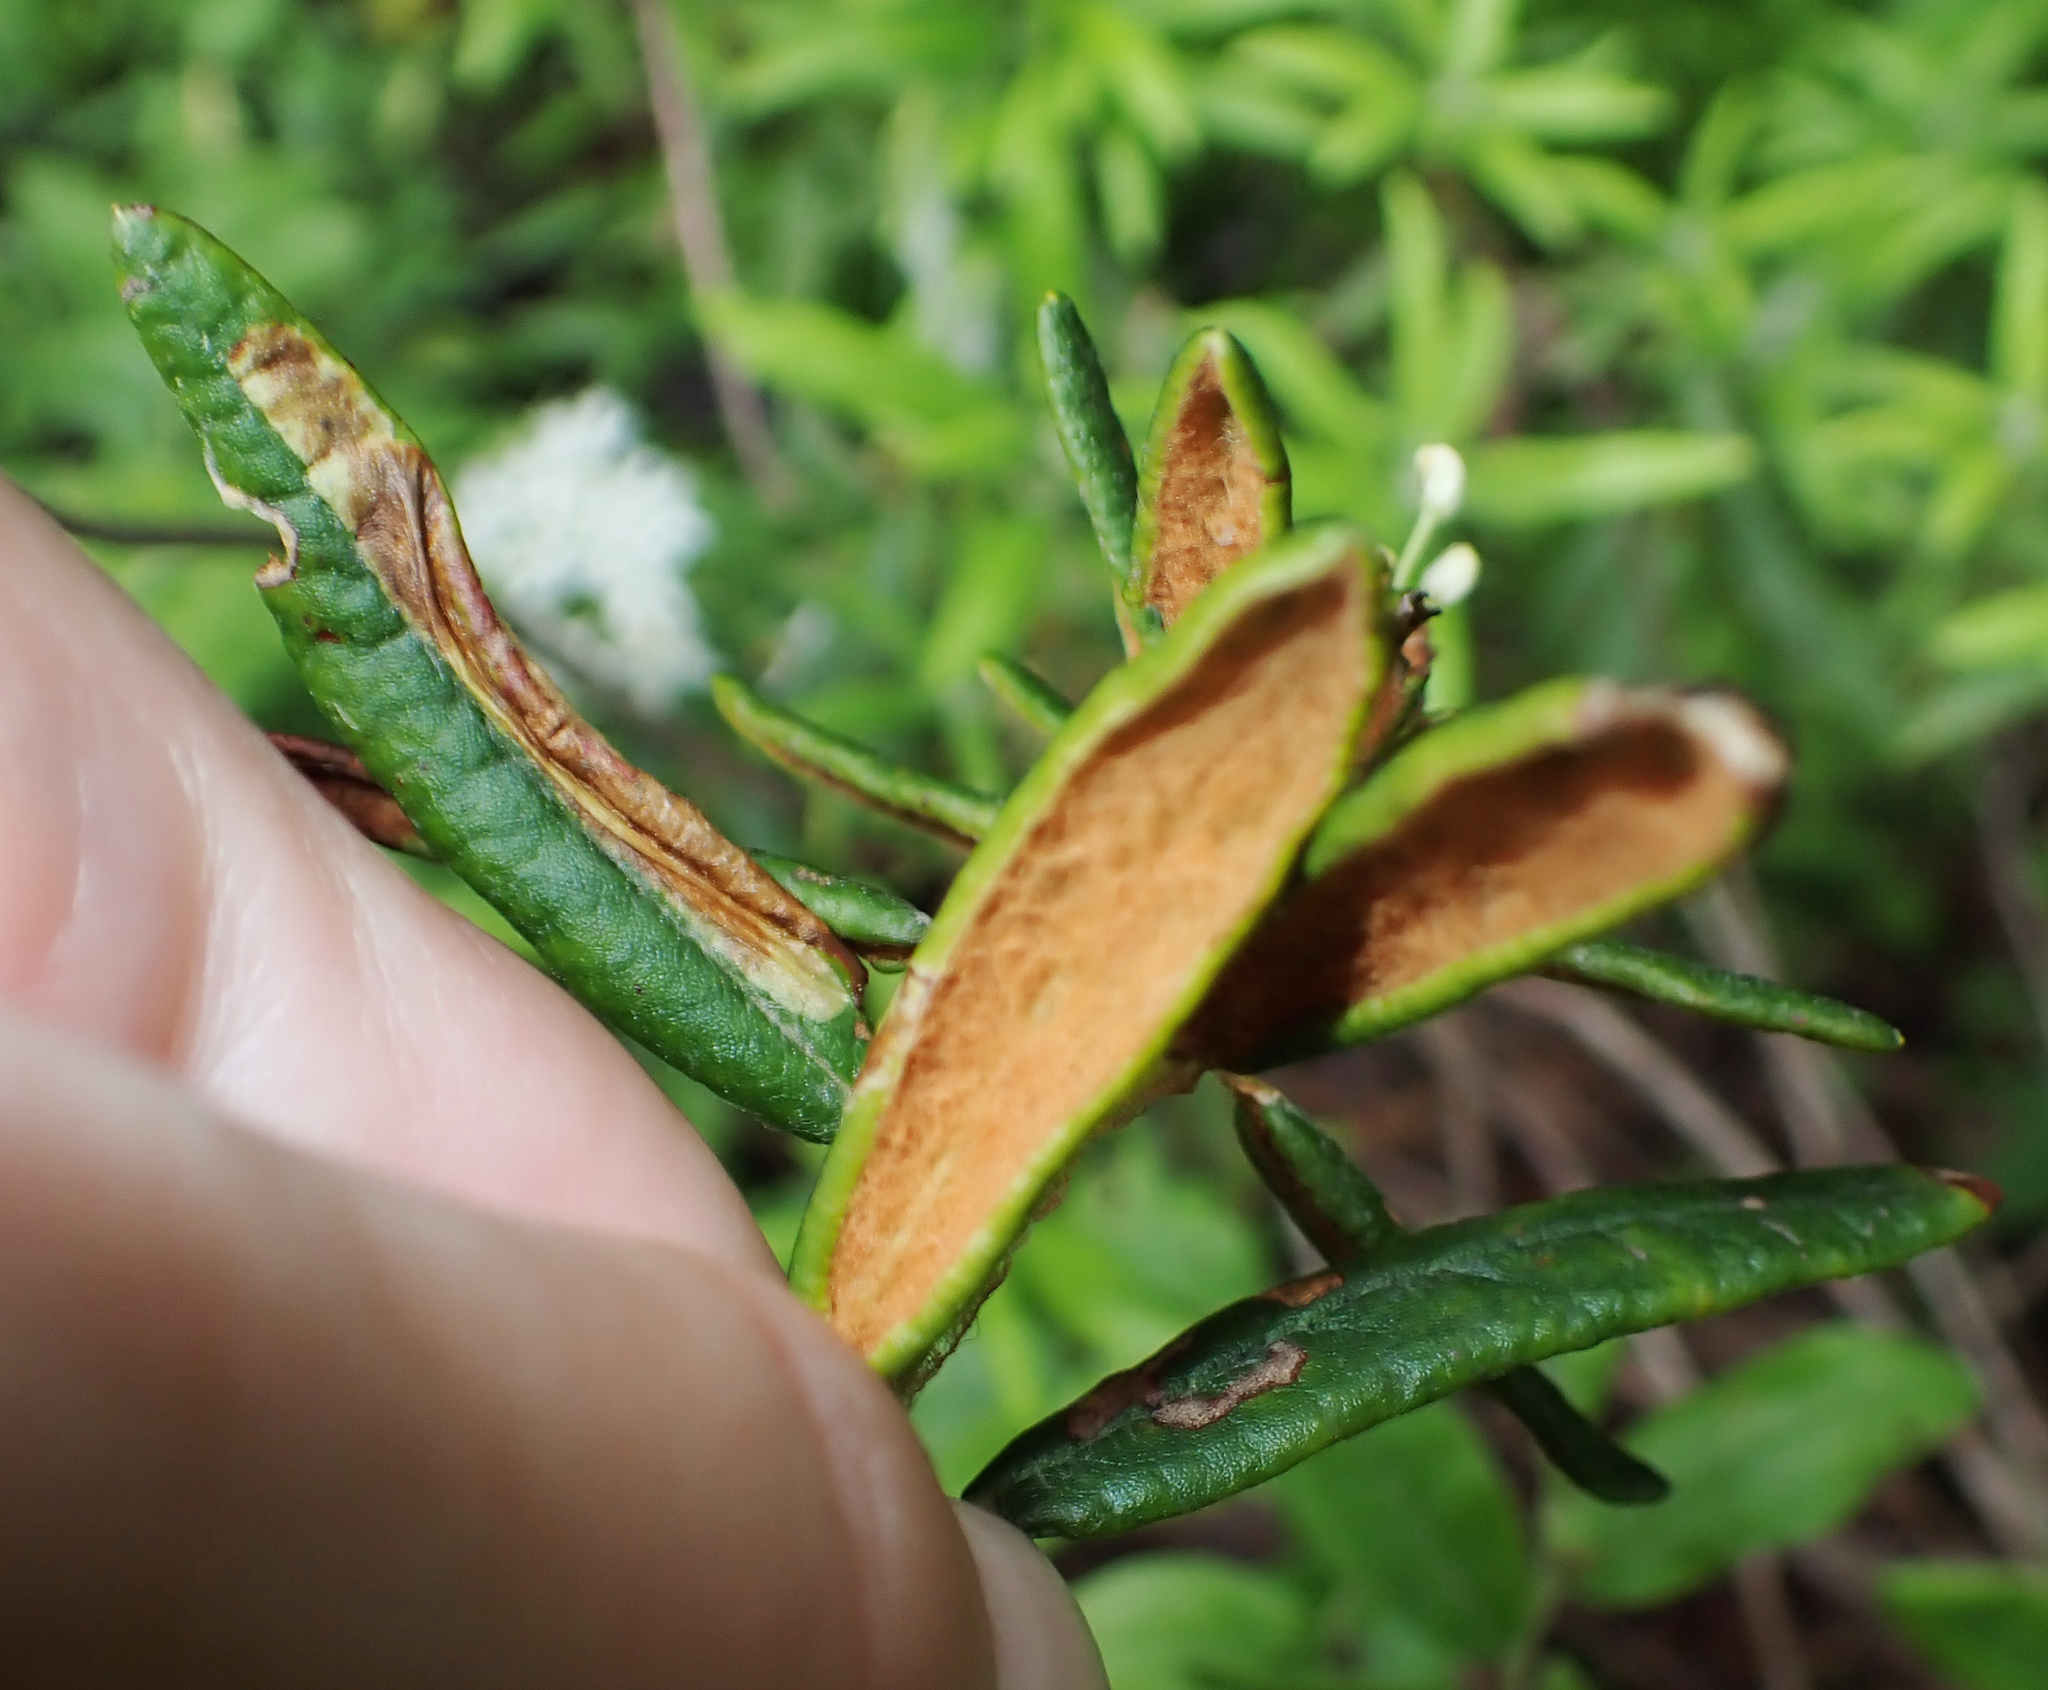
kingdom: Plantae
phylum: Tracheophyta
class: Magnoliopsida
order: Ericales
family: Ericaceae
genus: Rhododendron
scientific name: Rhododendron groenlandicum
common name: Bog labrador tea
